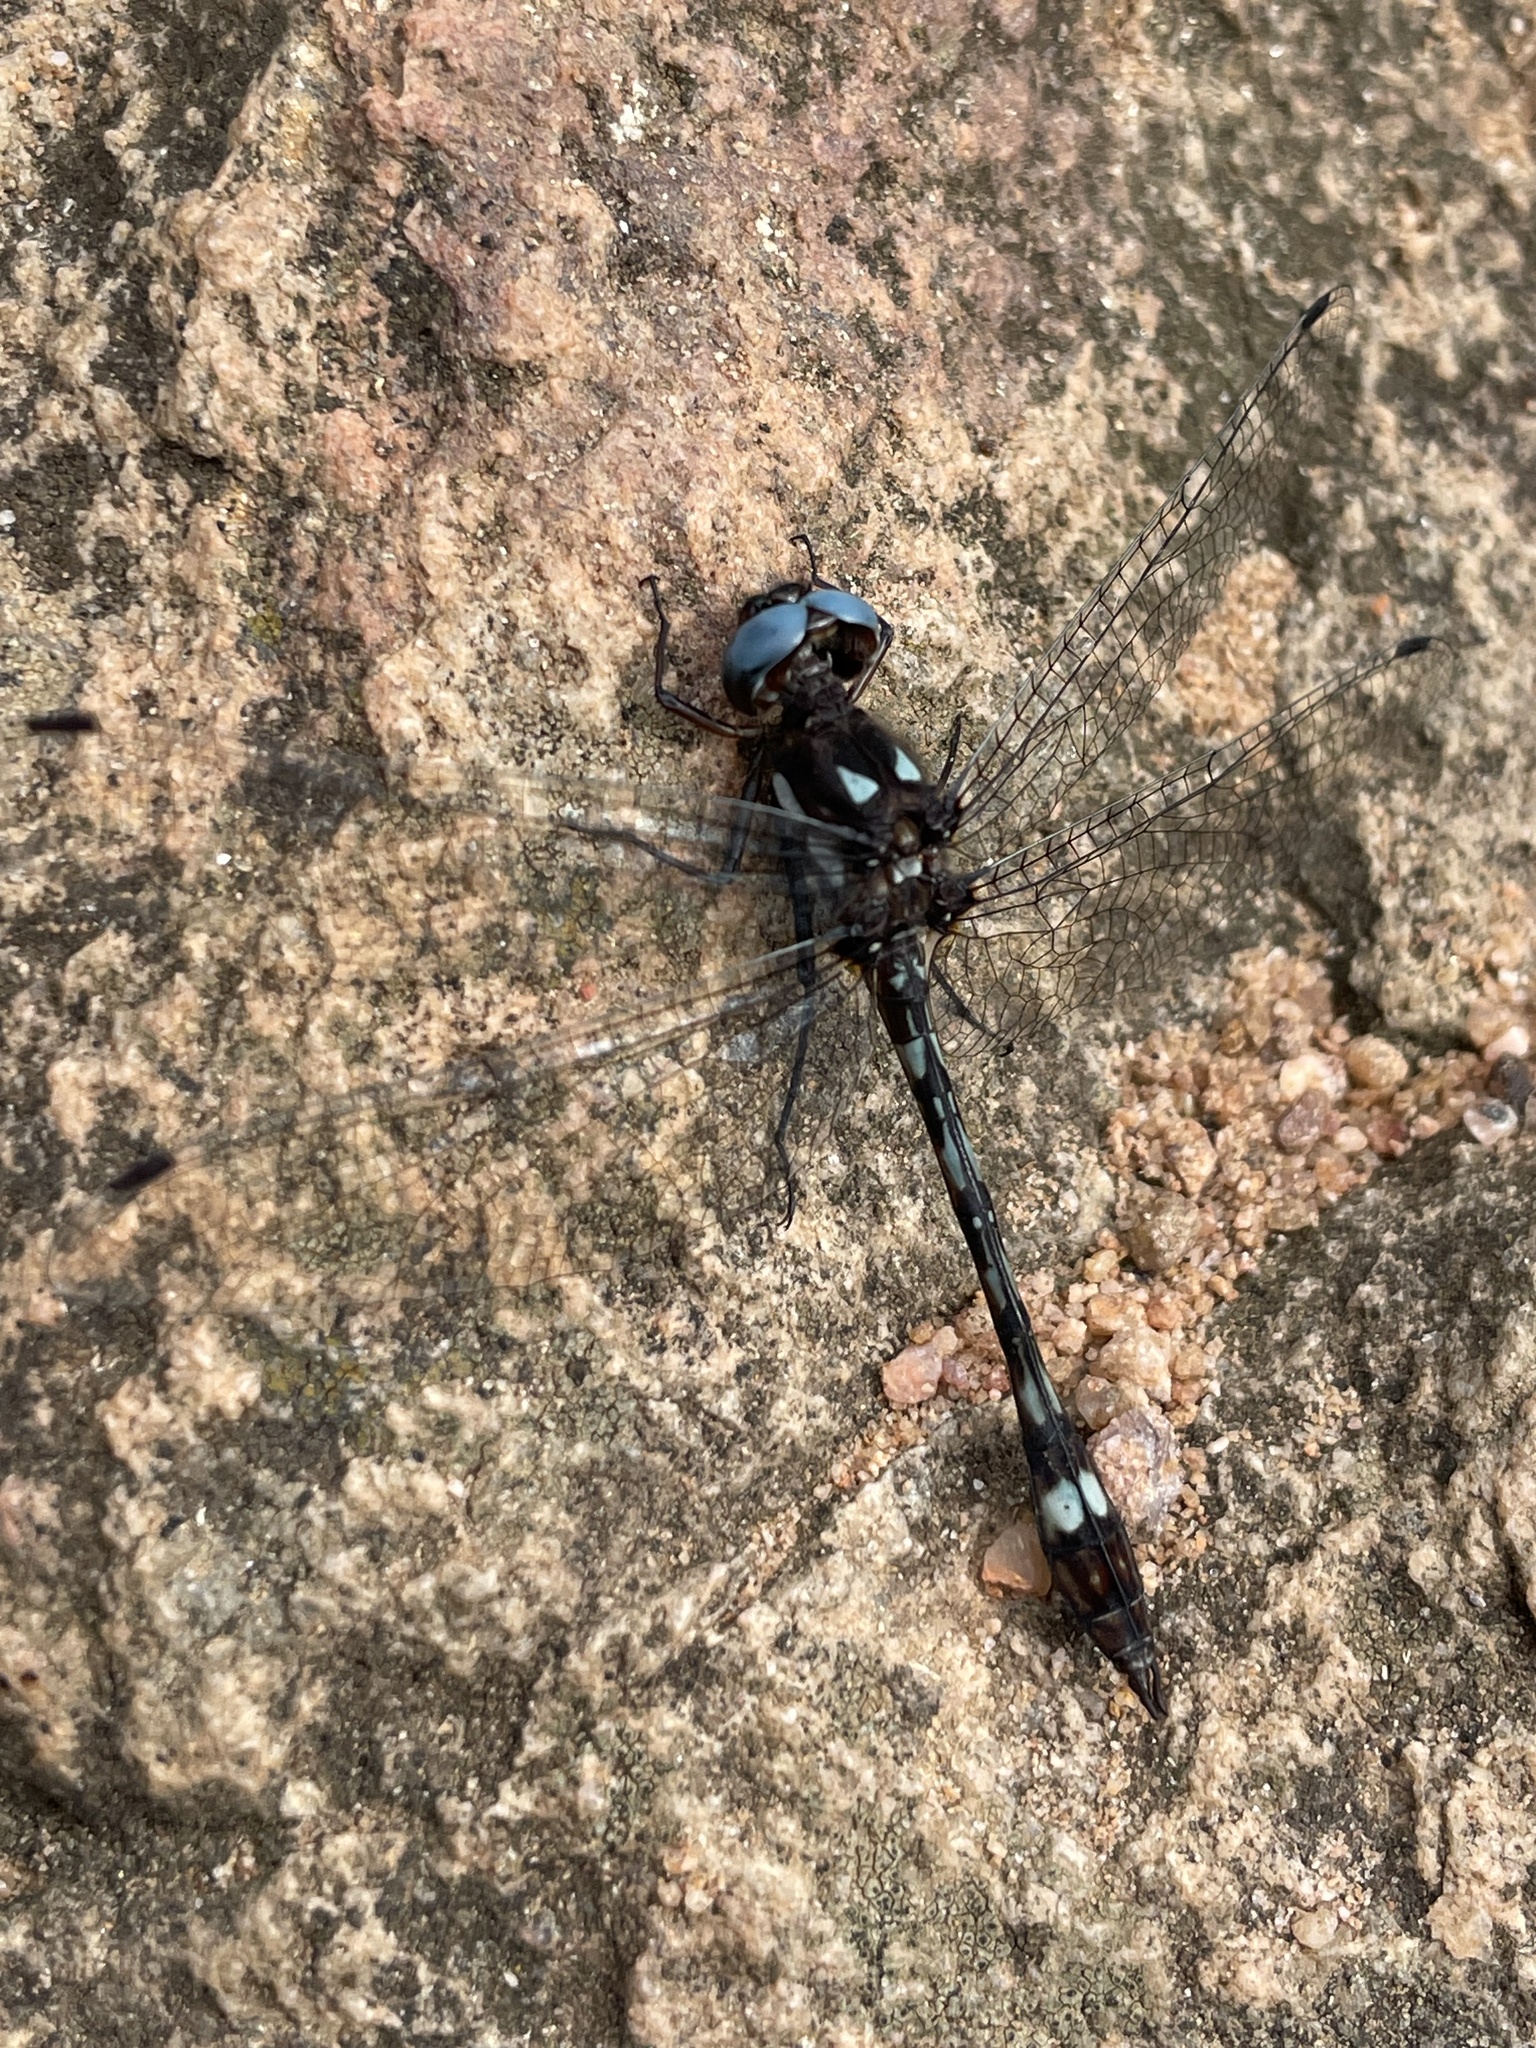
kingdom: Animalia
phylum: Arthropoda
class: Insecta
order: Odonata
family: Libellulidae
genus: Macrothemis
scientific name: Macrothemis imitans
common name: Ivory-striped sylph
